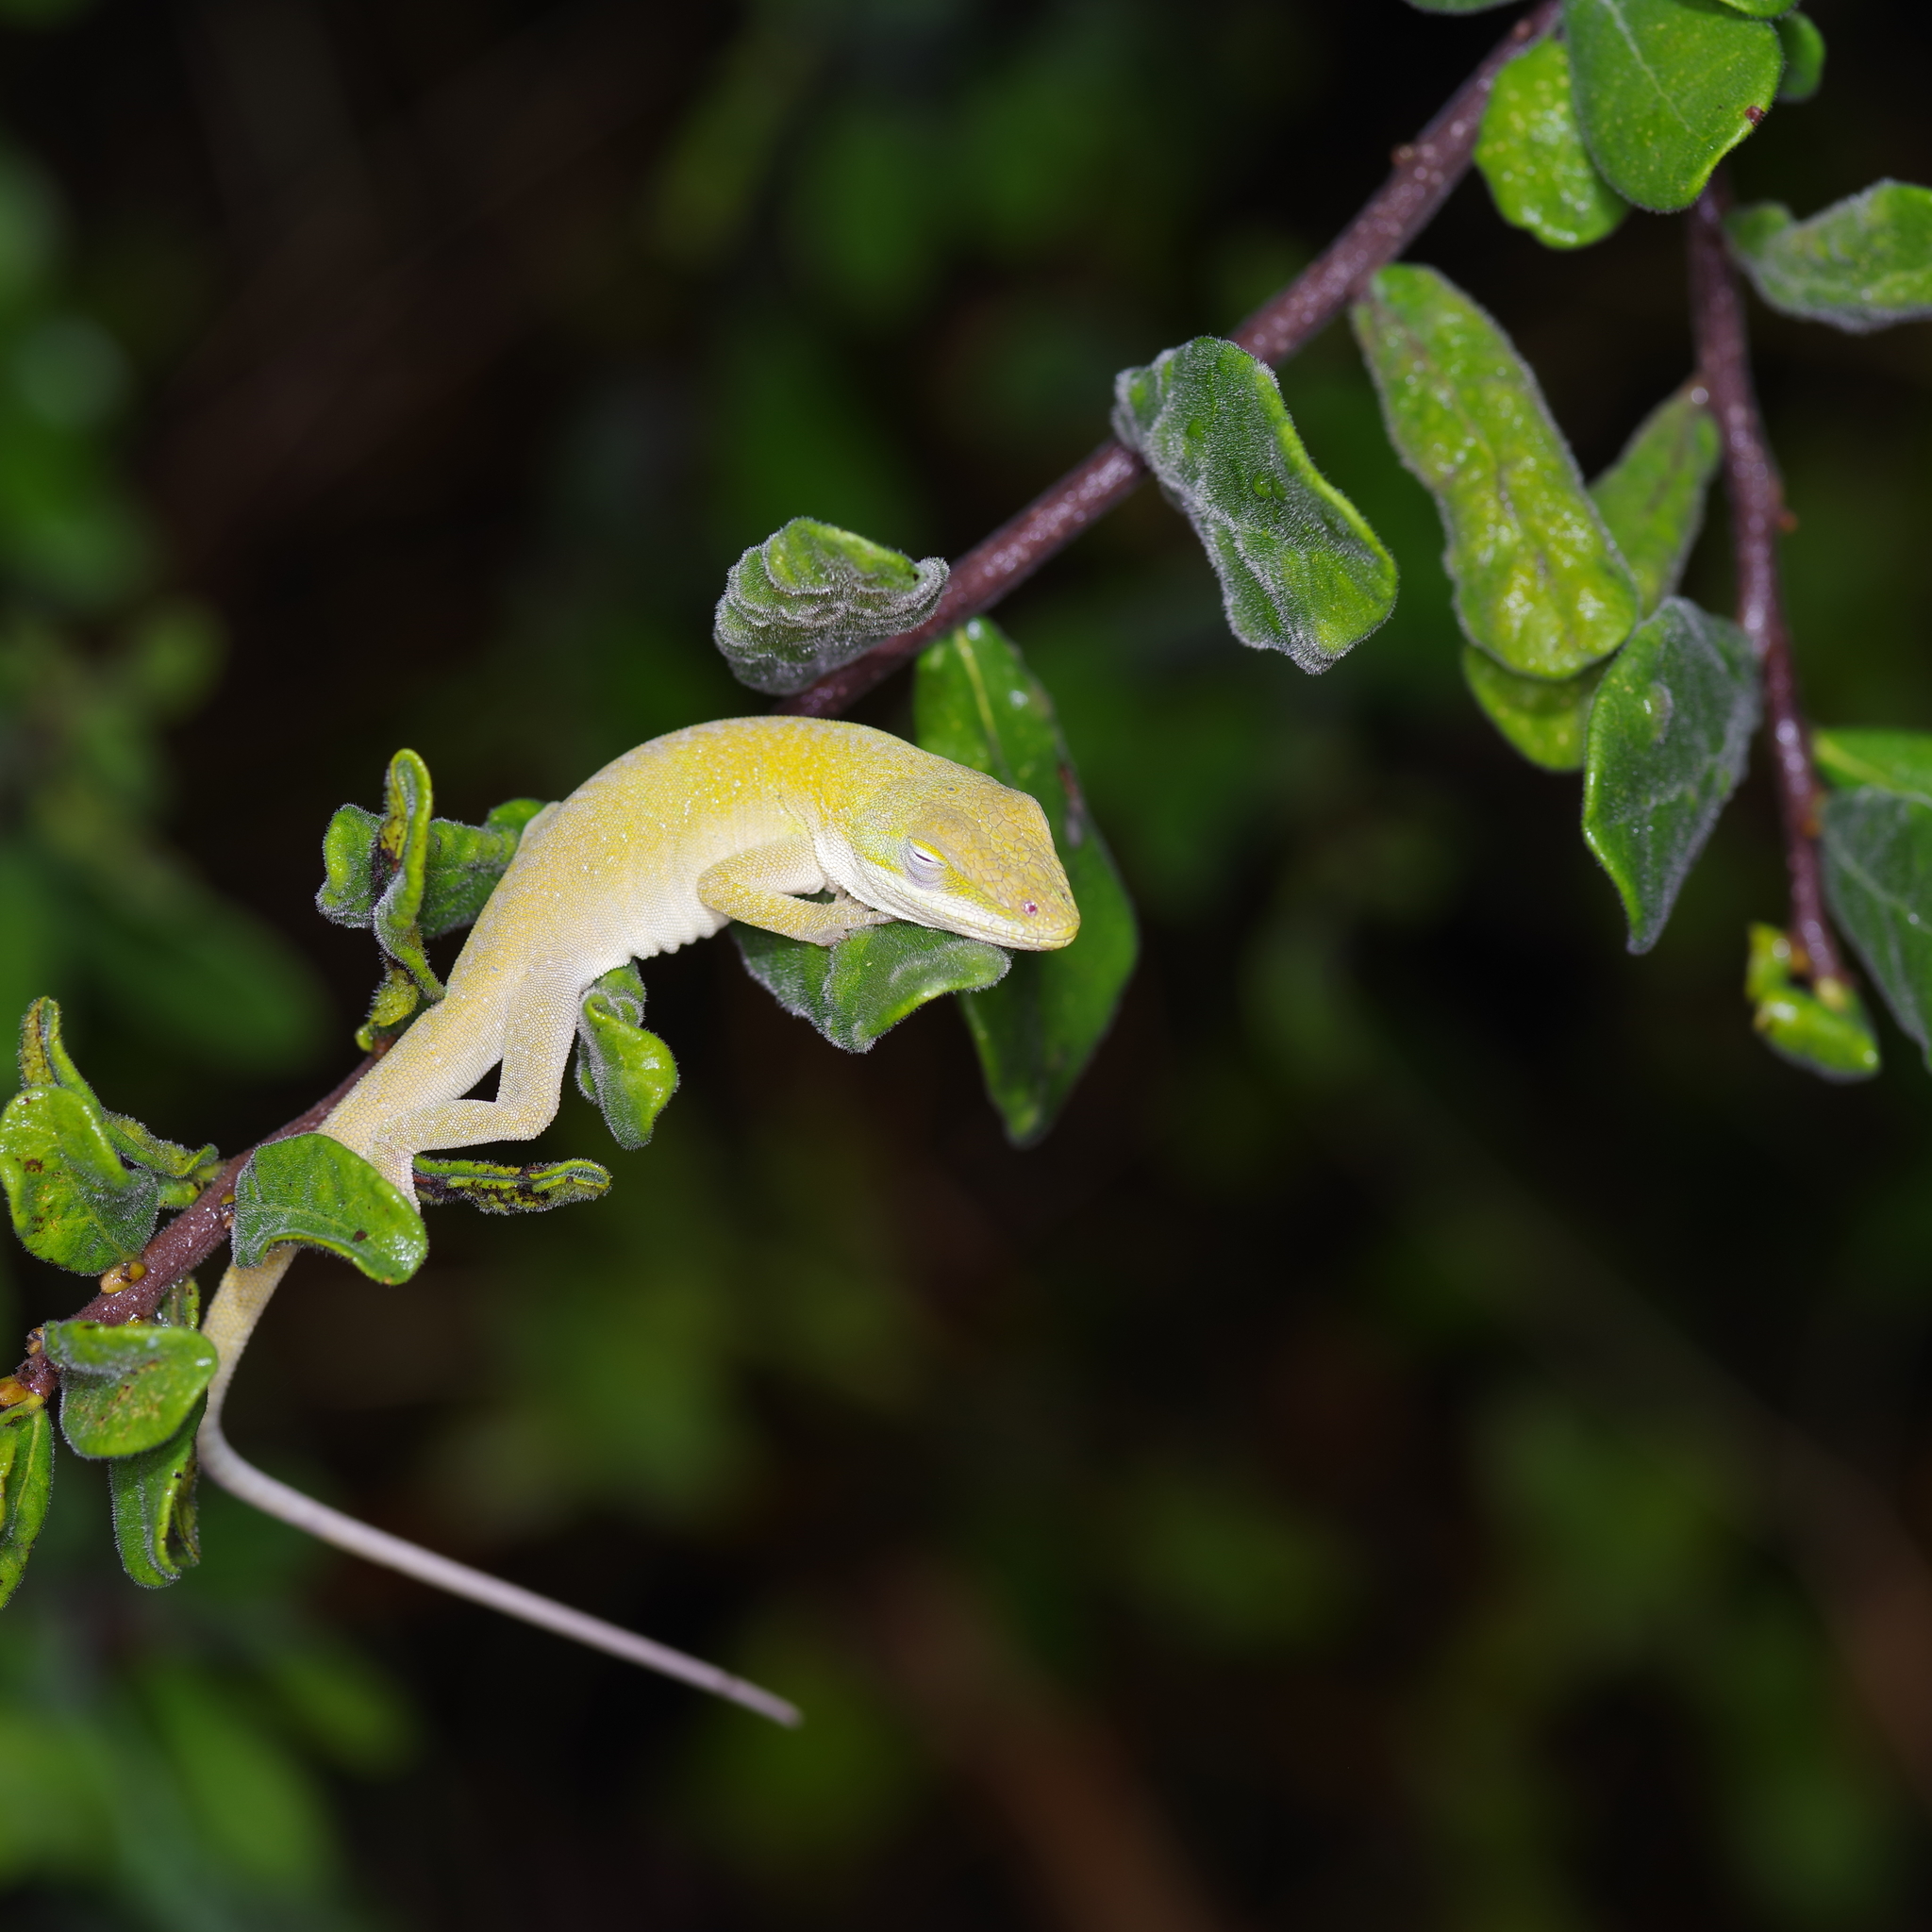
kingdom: Animalia
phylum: Chordata
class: Squamata
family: Dactyloidae
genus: Anolis
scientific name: Anolis carolinensis
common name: Green anole
